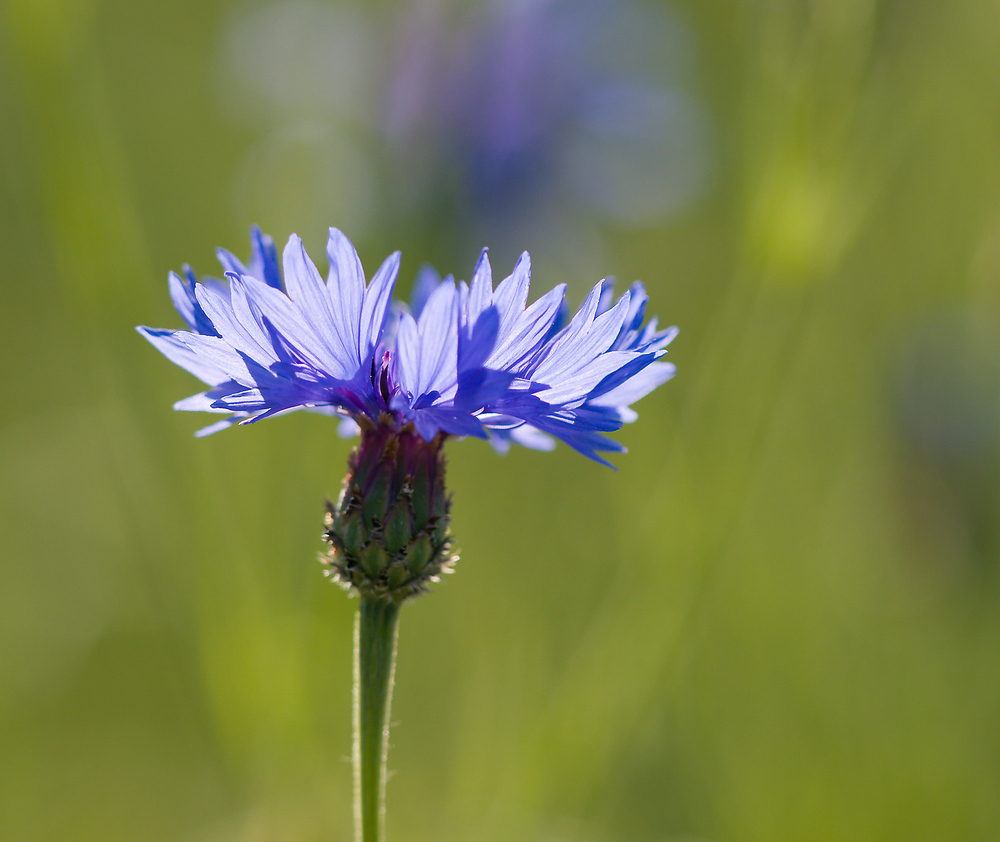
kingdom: Plantae
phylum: Tracheophyta
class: Magnoliopsida
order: Asterales
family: Asteraceae
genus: Centaurea
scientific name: Centaurea cyanus
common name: Cornflower
